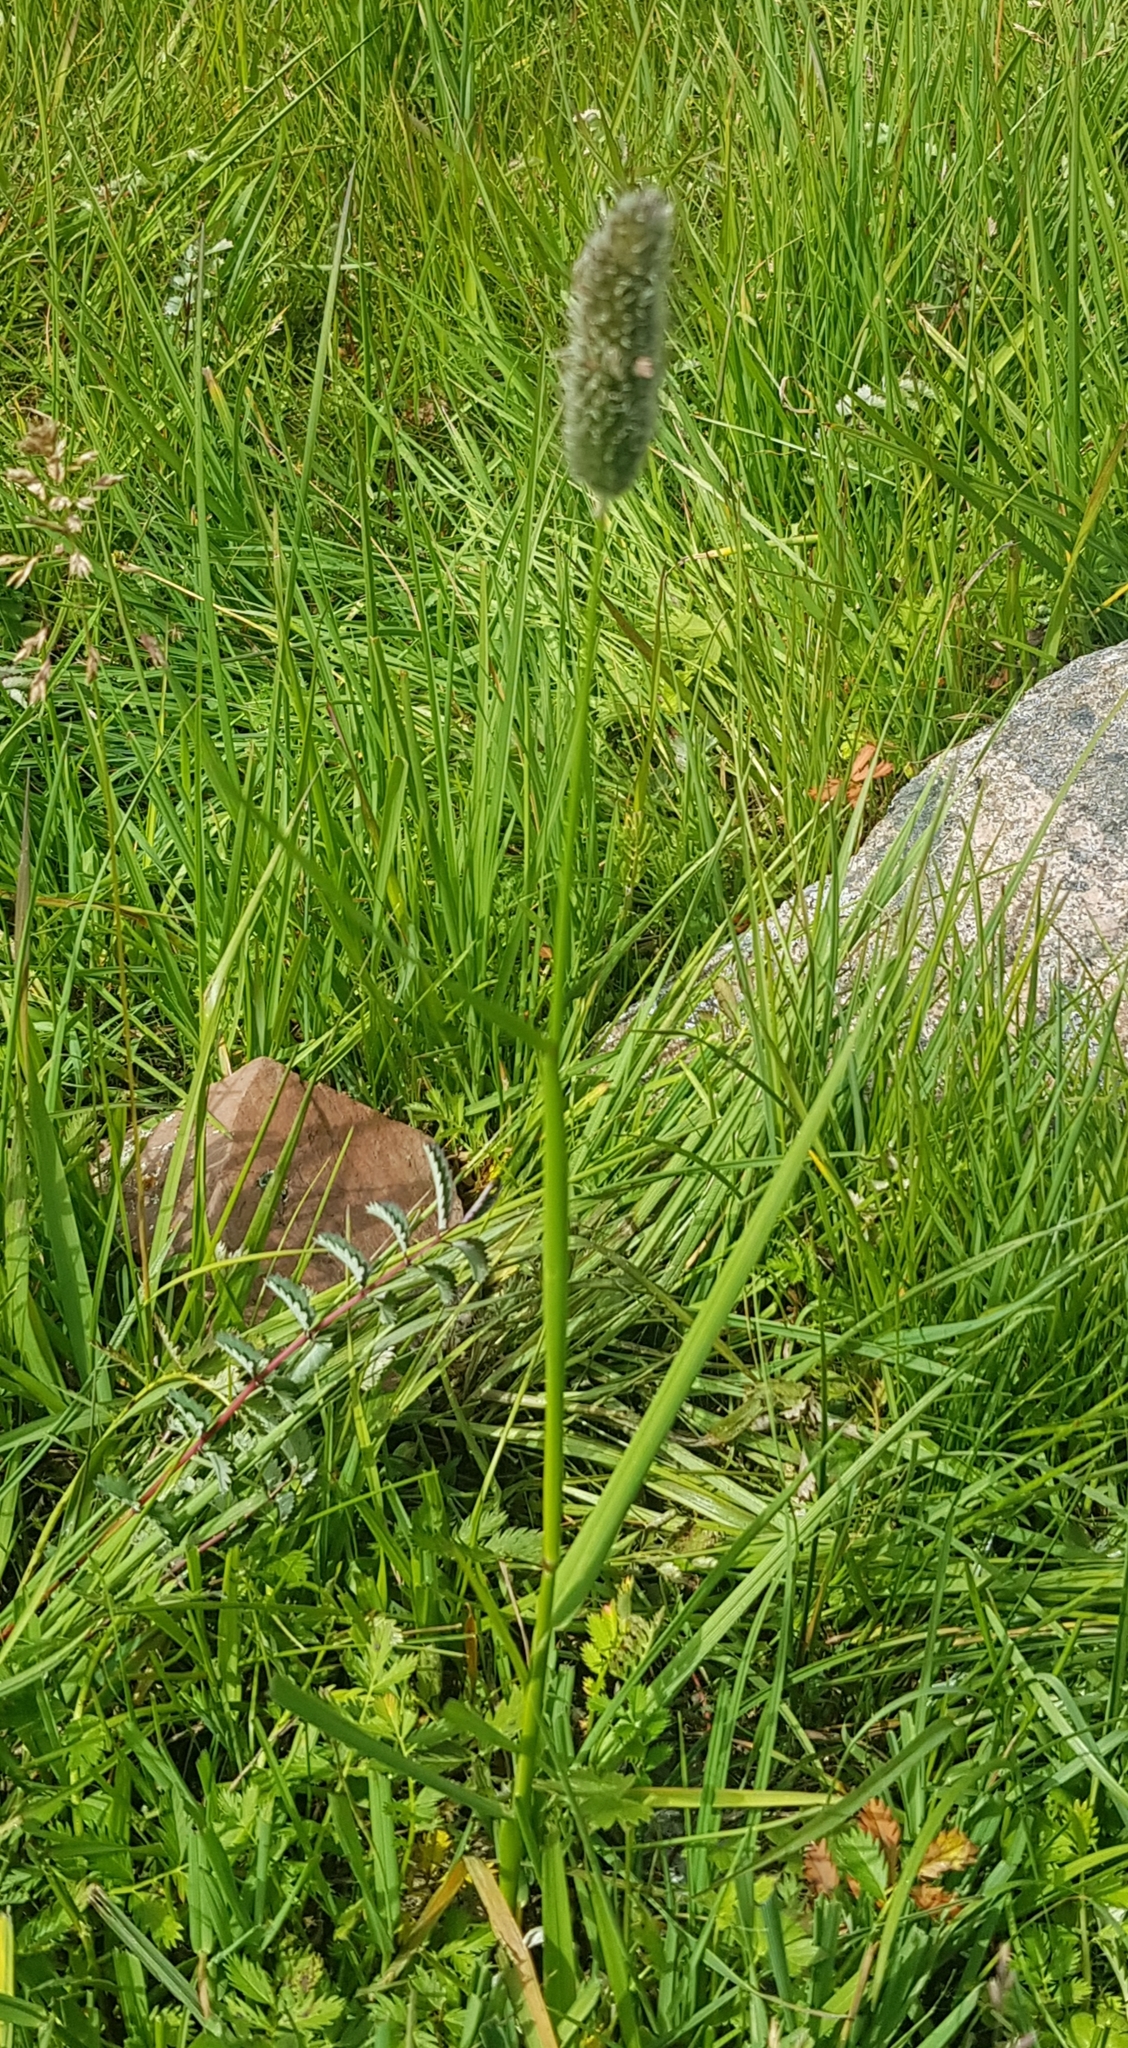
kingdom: Plantae
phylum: Tracheophyta
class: Liliopsida
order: Poales
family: Poaceae
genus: Phleum
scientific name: Phleum alpinum
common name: Alpine cat's-tail
